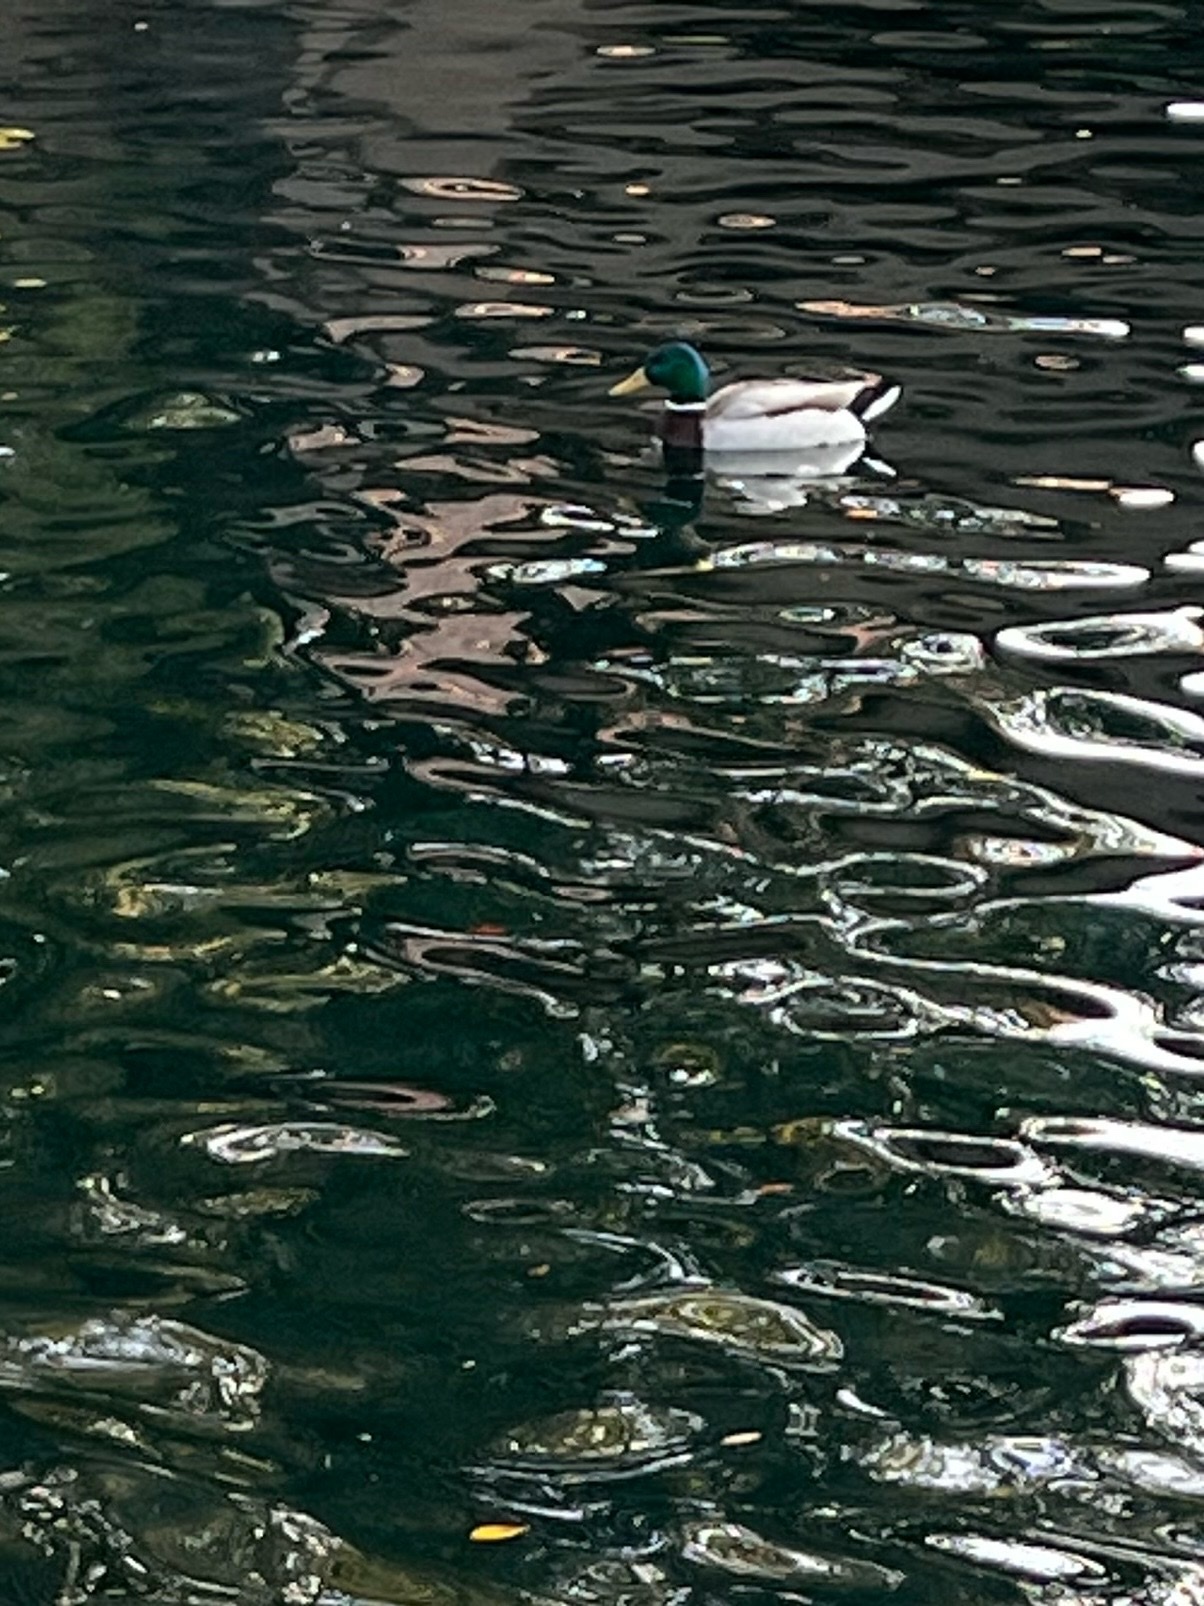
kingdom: Animalia
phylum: Chordata
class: Aves
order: Anseriformes
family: Anatidae
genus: Anas
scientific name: Anas platyrhynchos
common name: Mallard
